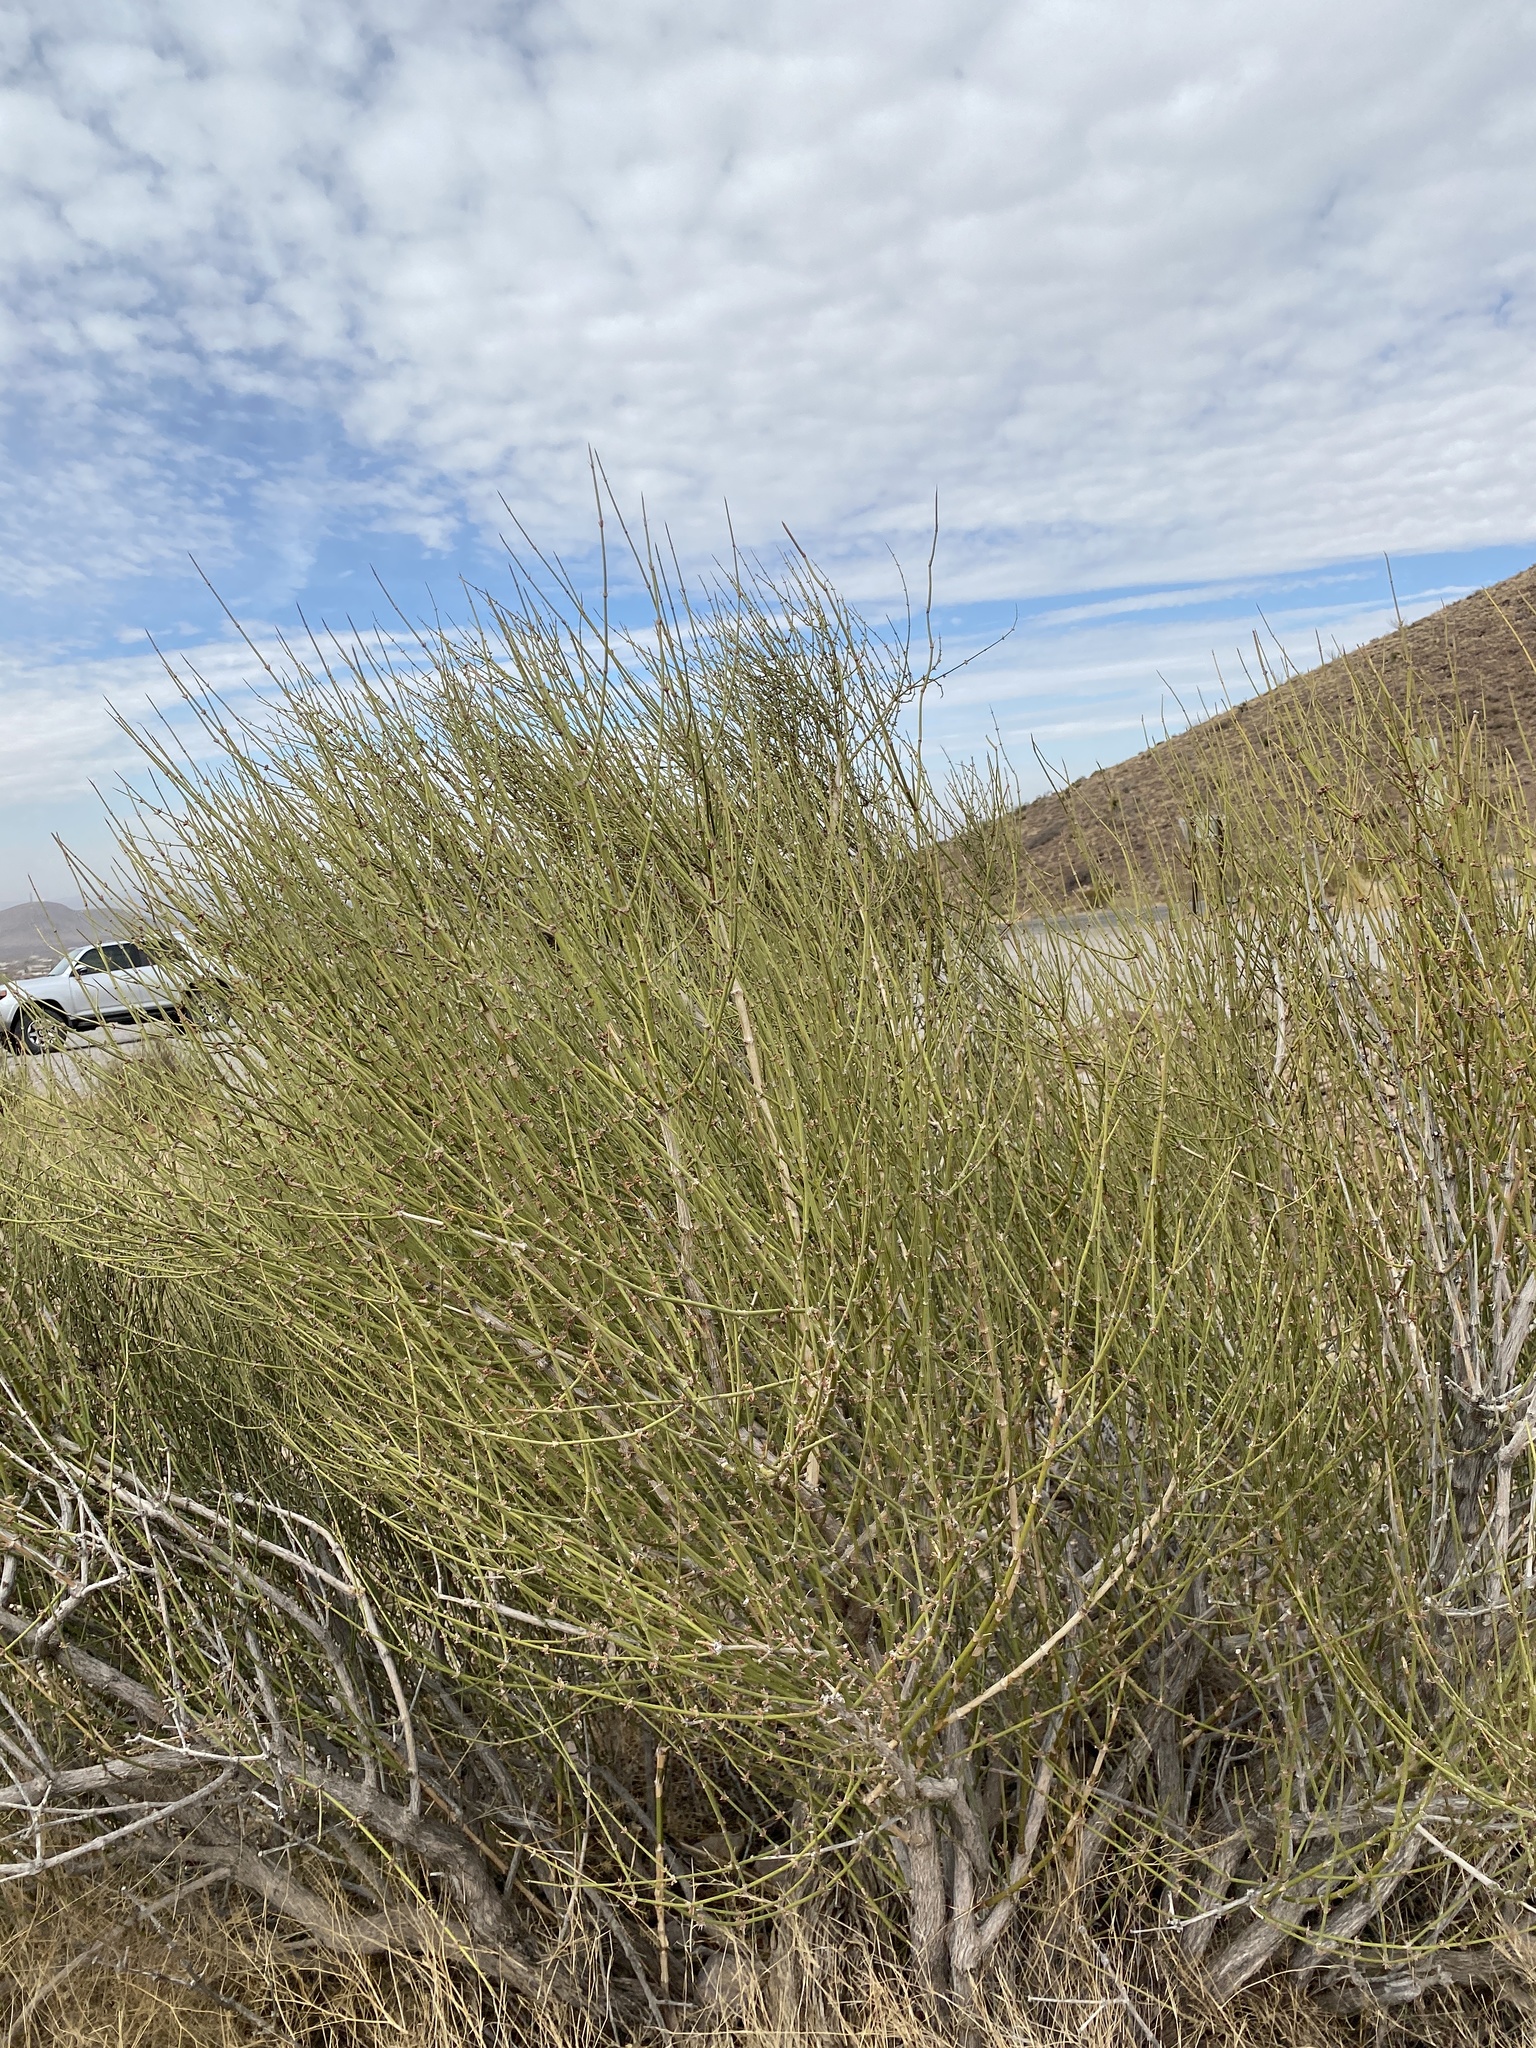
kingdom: Plantae
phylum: Tracheophyta
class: Gnetopsida
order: Ephedrales
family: Ephedraceae
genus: Ephedra
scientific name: Ephedra trifurca
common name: Mexican-tea
